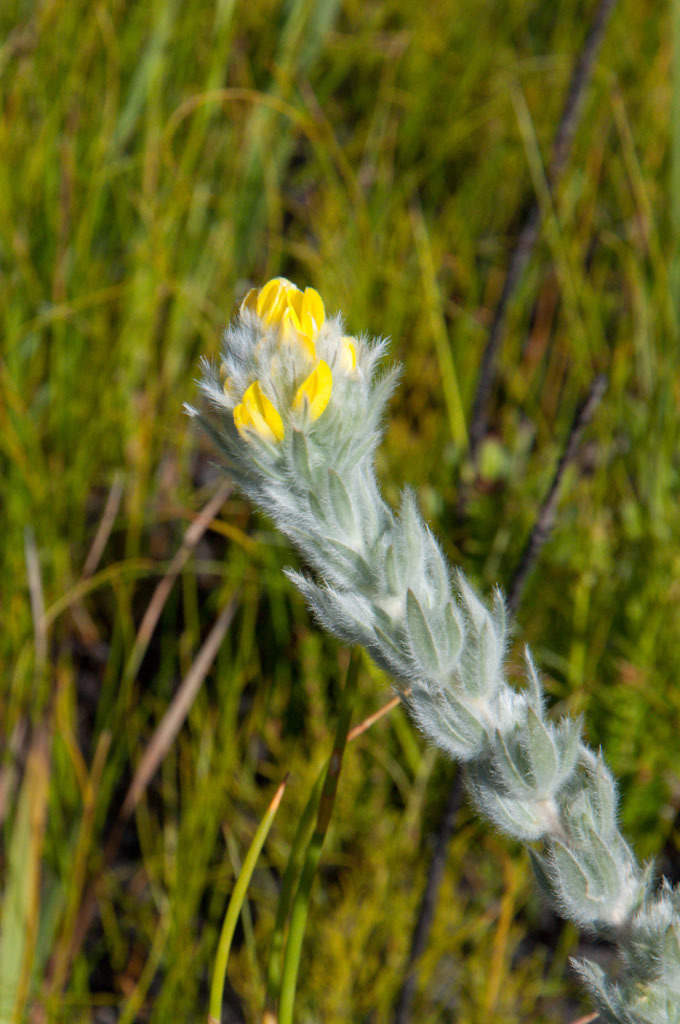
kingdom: Plantae
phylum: Tracheophyta
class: Magnoliopsida
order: Fabales
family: Fabaceae
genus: Aspalathus
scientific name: Aspalathus dunsdoniana
